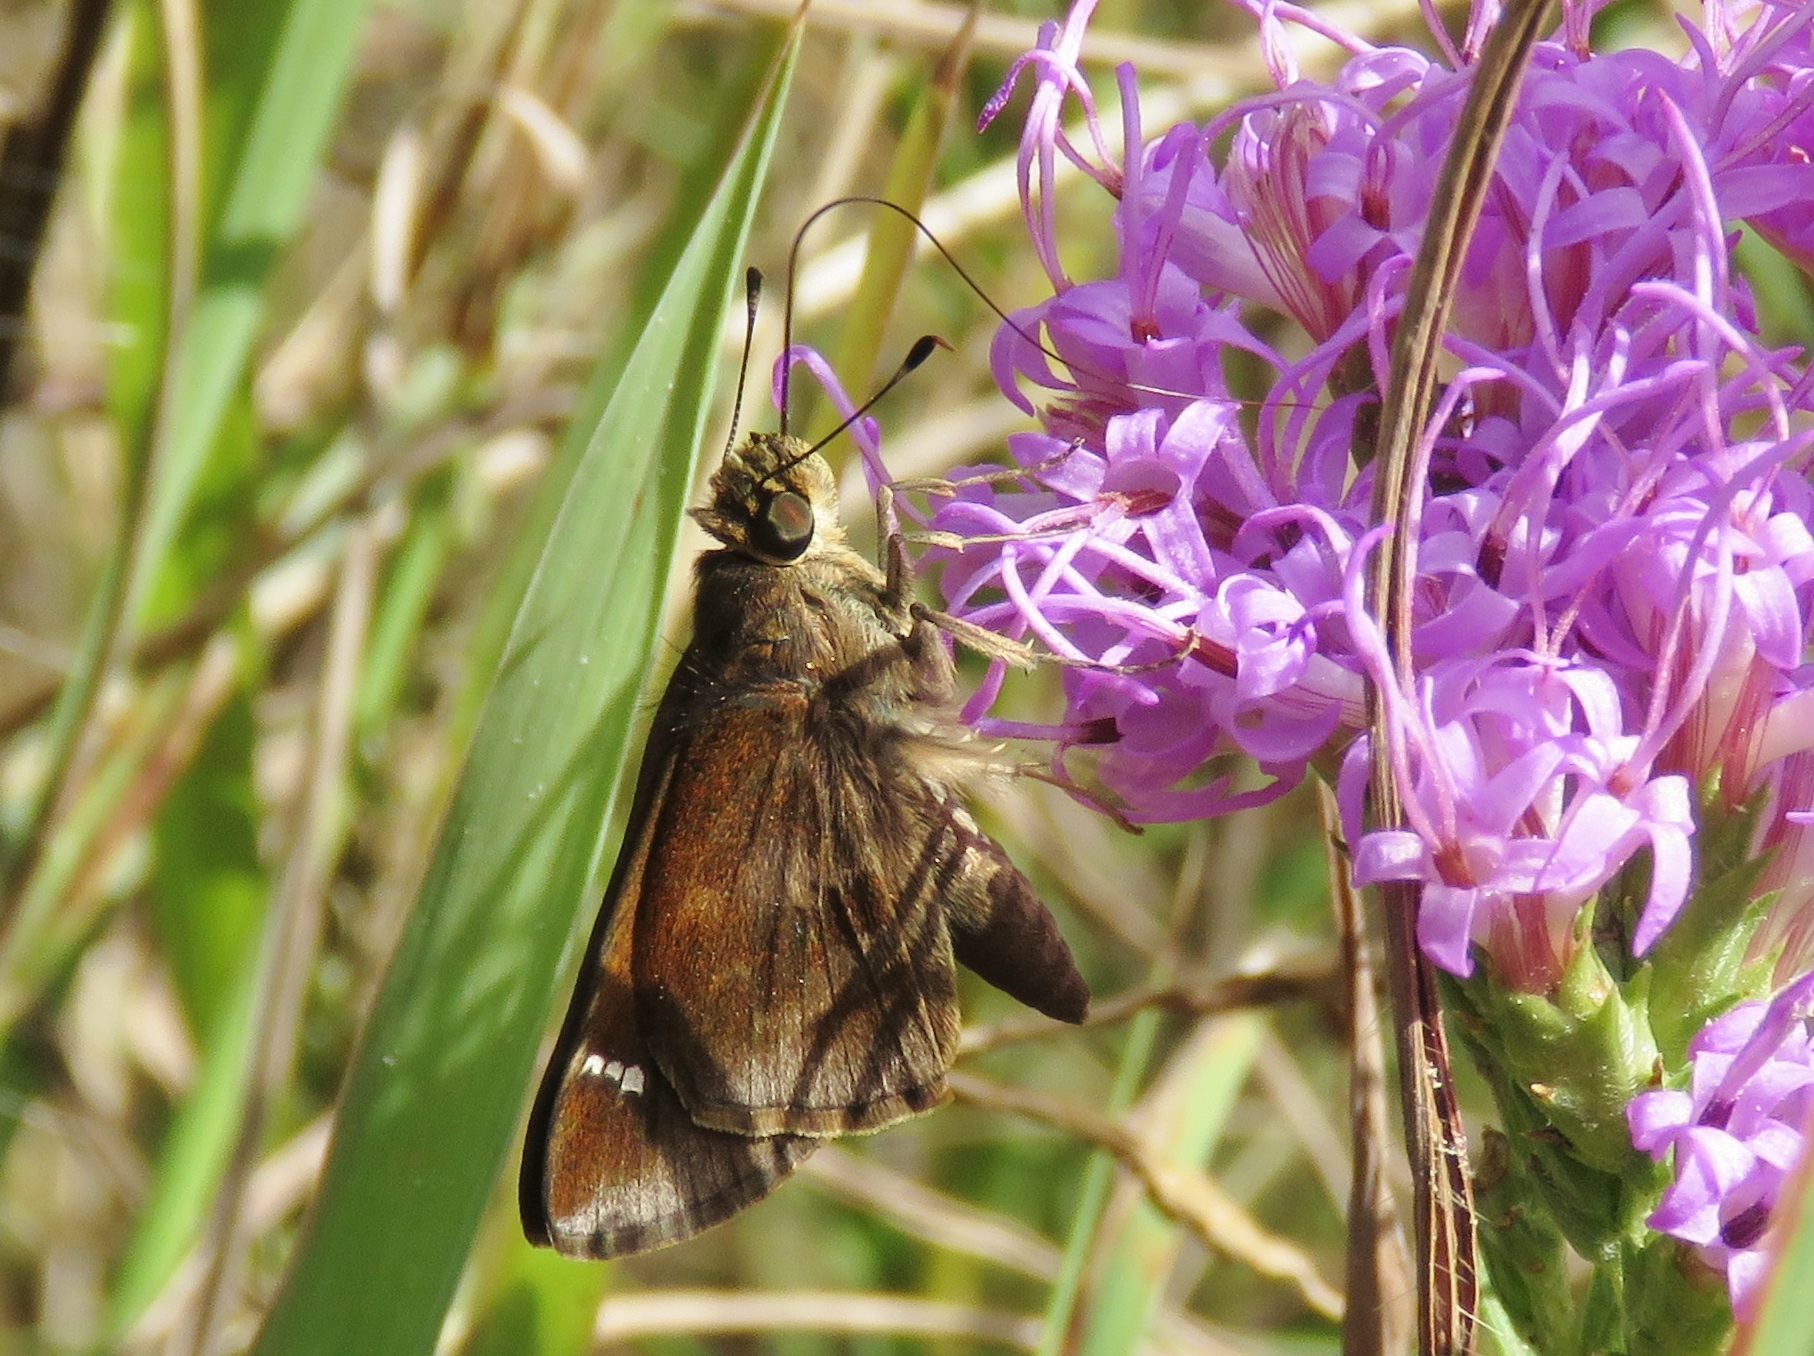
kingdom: Animalia
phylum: Arthropoda
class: Insecta
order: Lepidoptera
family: Hesperiidae
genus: Lerema
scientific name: Lerema accius
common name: Clouded skipper
